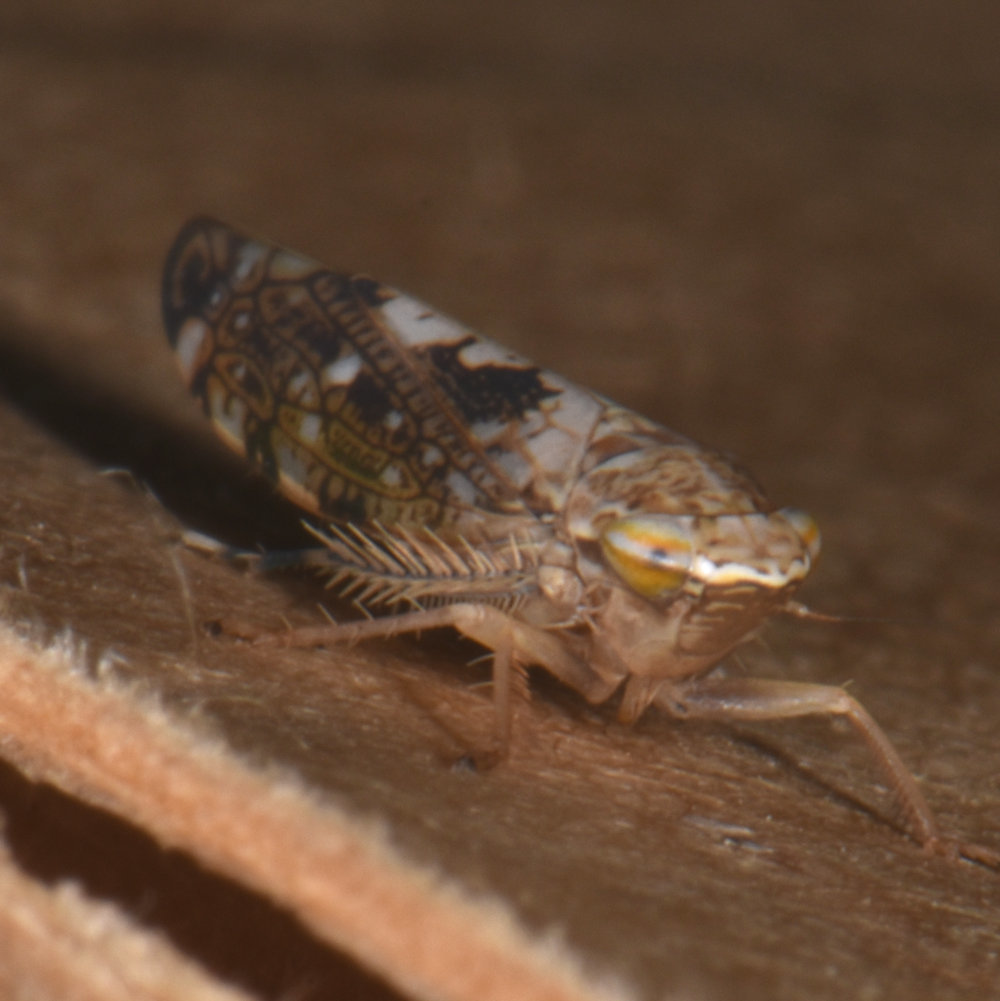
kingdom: Animalia
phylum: Arthropoda
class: Insecta
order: Hemiptera
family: Cicadellidae
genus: Prescottia
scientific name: Prescottia lobata
